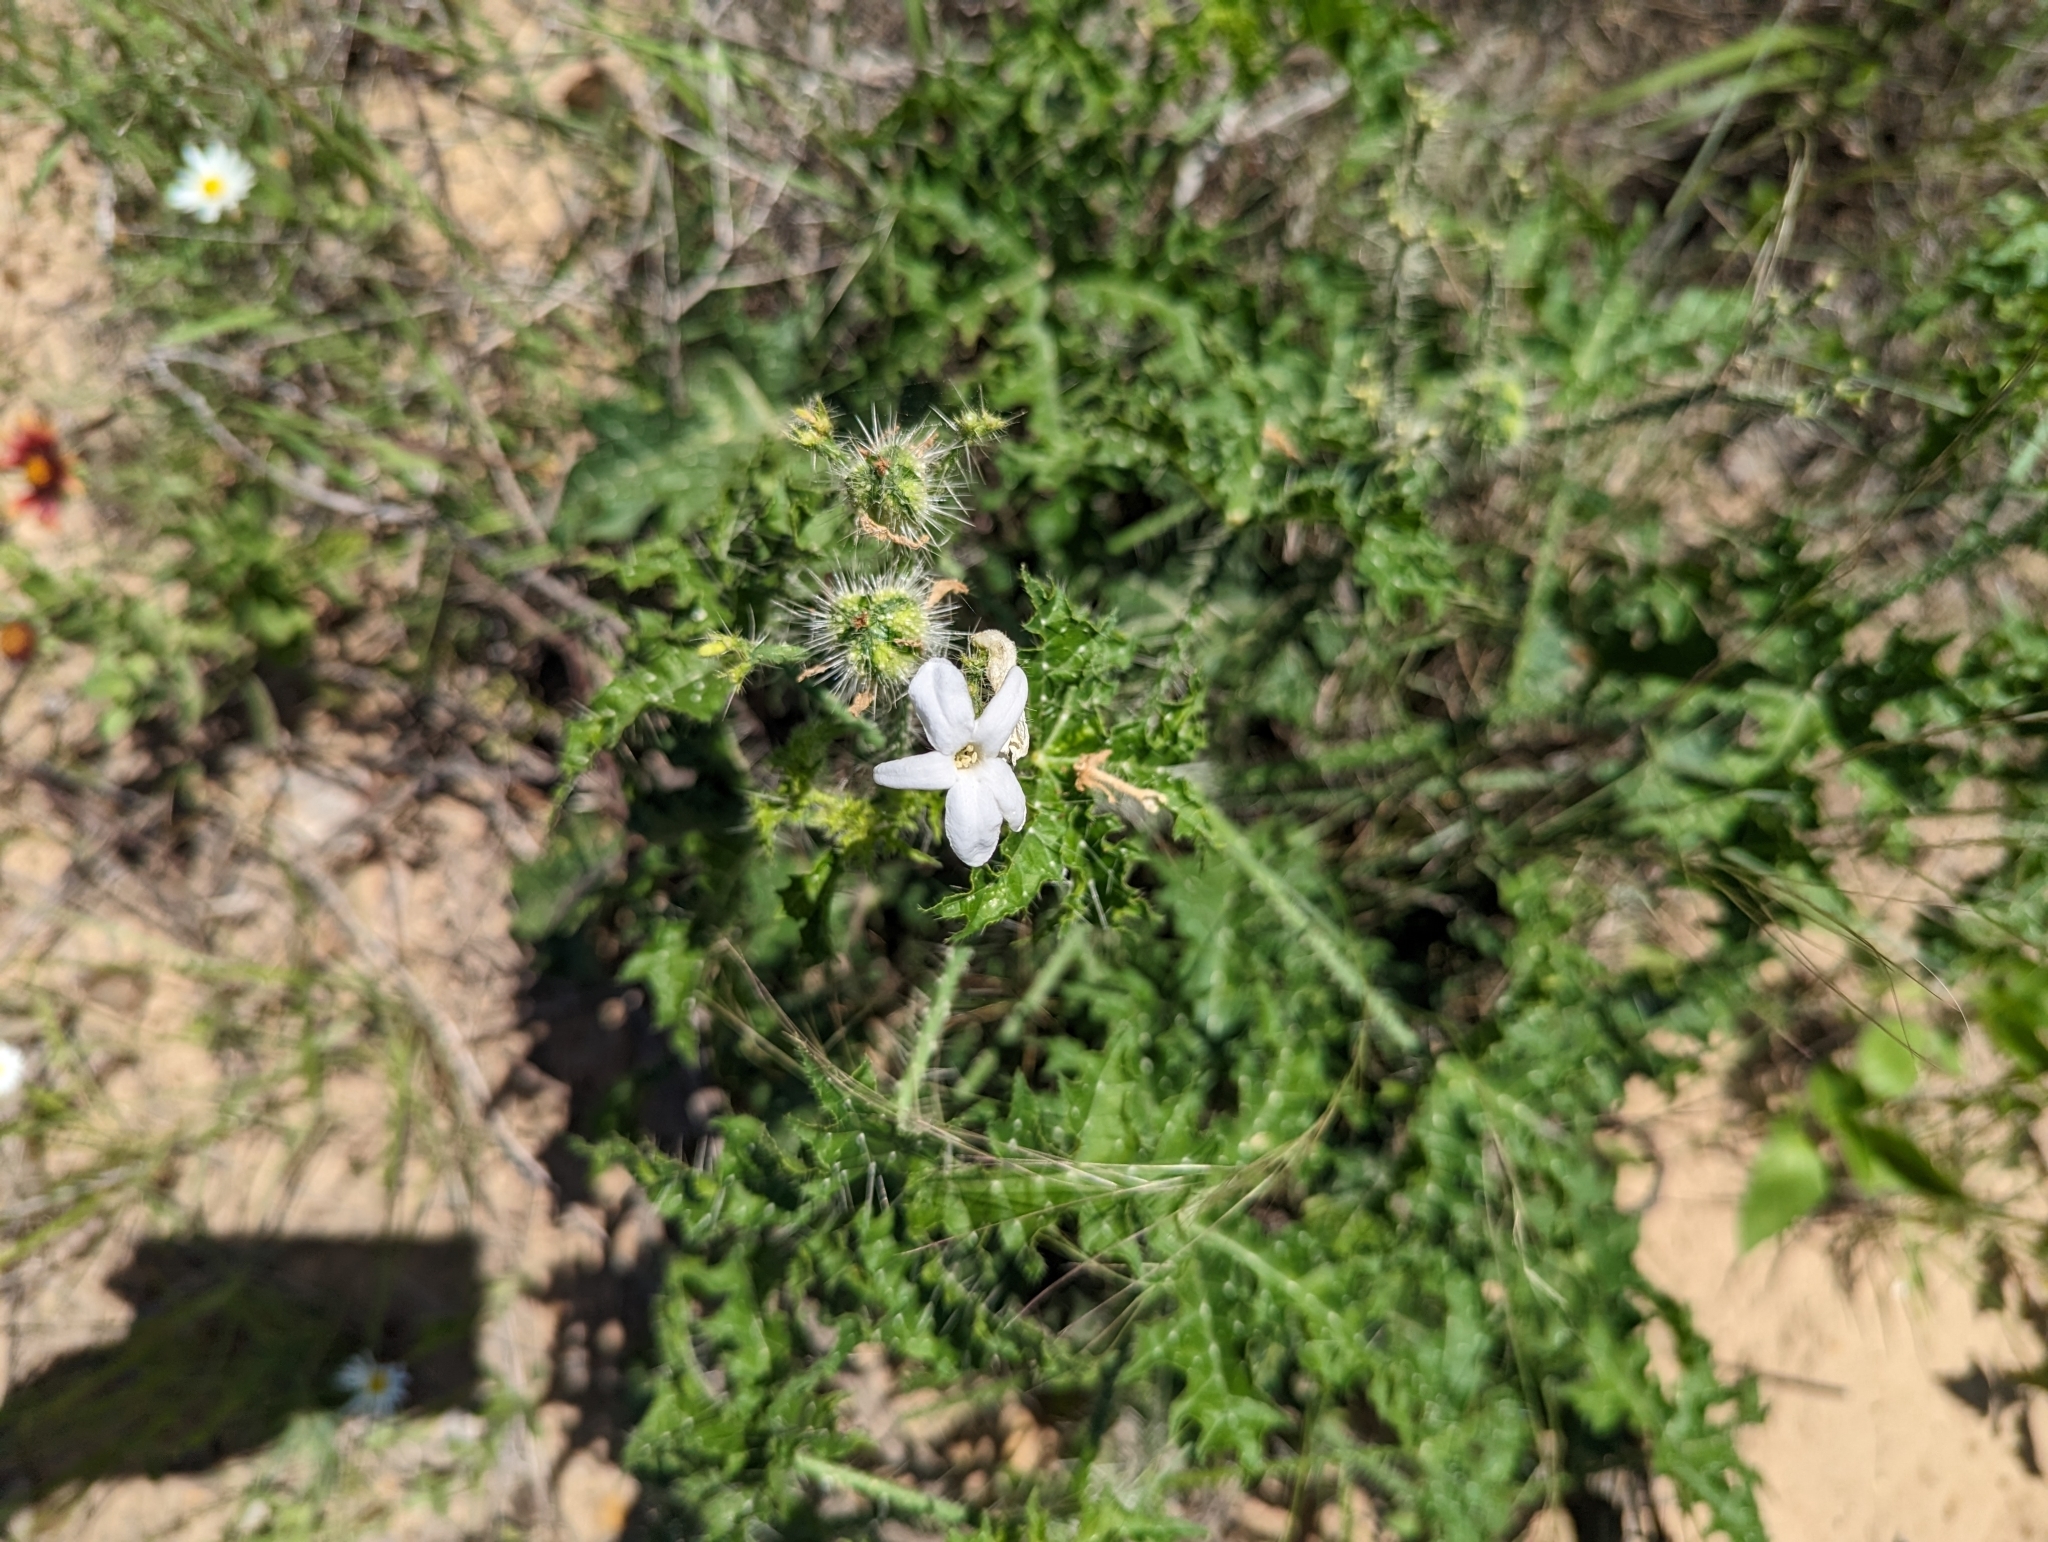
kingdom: Plantae
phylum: Tracheophyta
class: Magnoliopsida
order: Malpighiales
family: Euphorbiaceae
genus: Cnidoscolus
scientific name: Cnidoscolus texanus
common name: Texas bull-nettle
